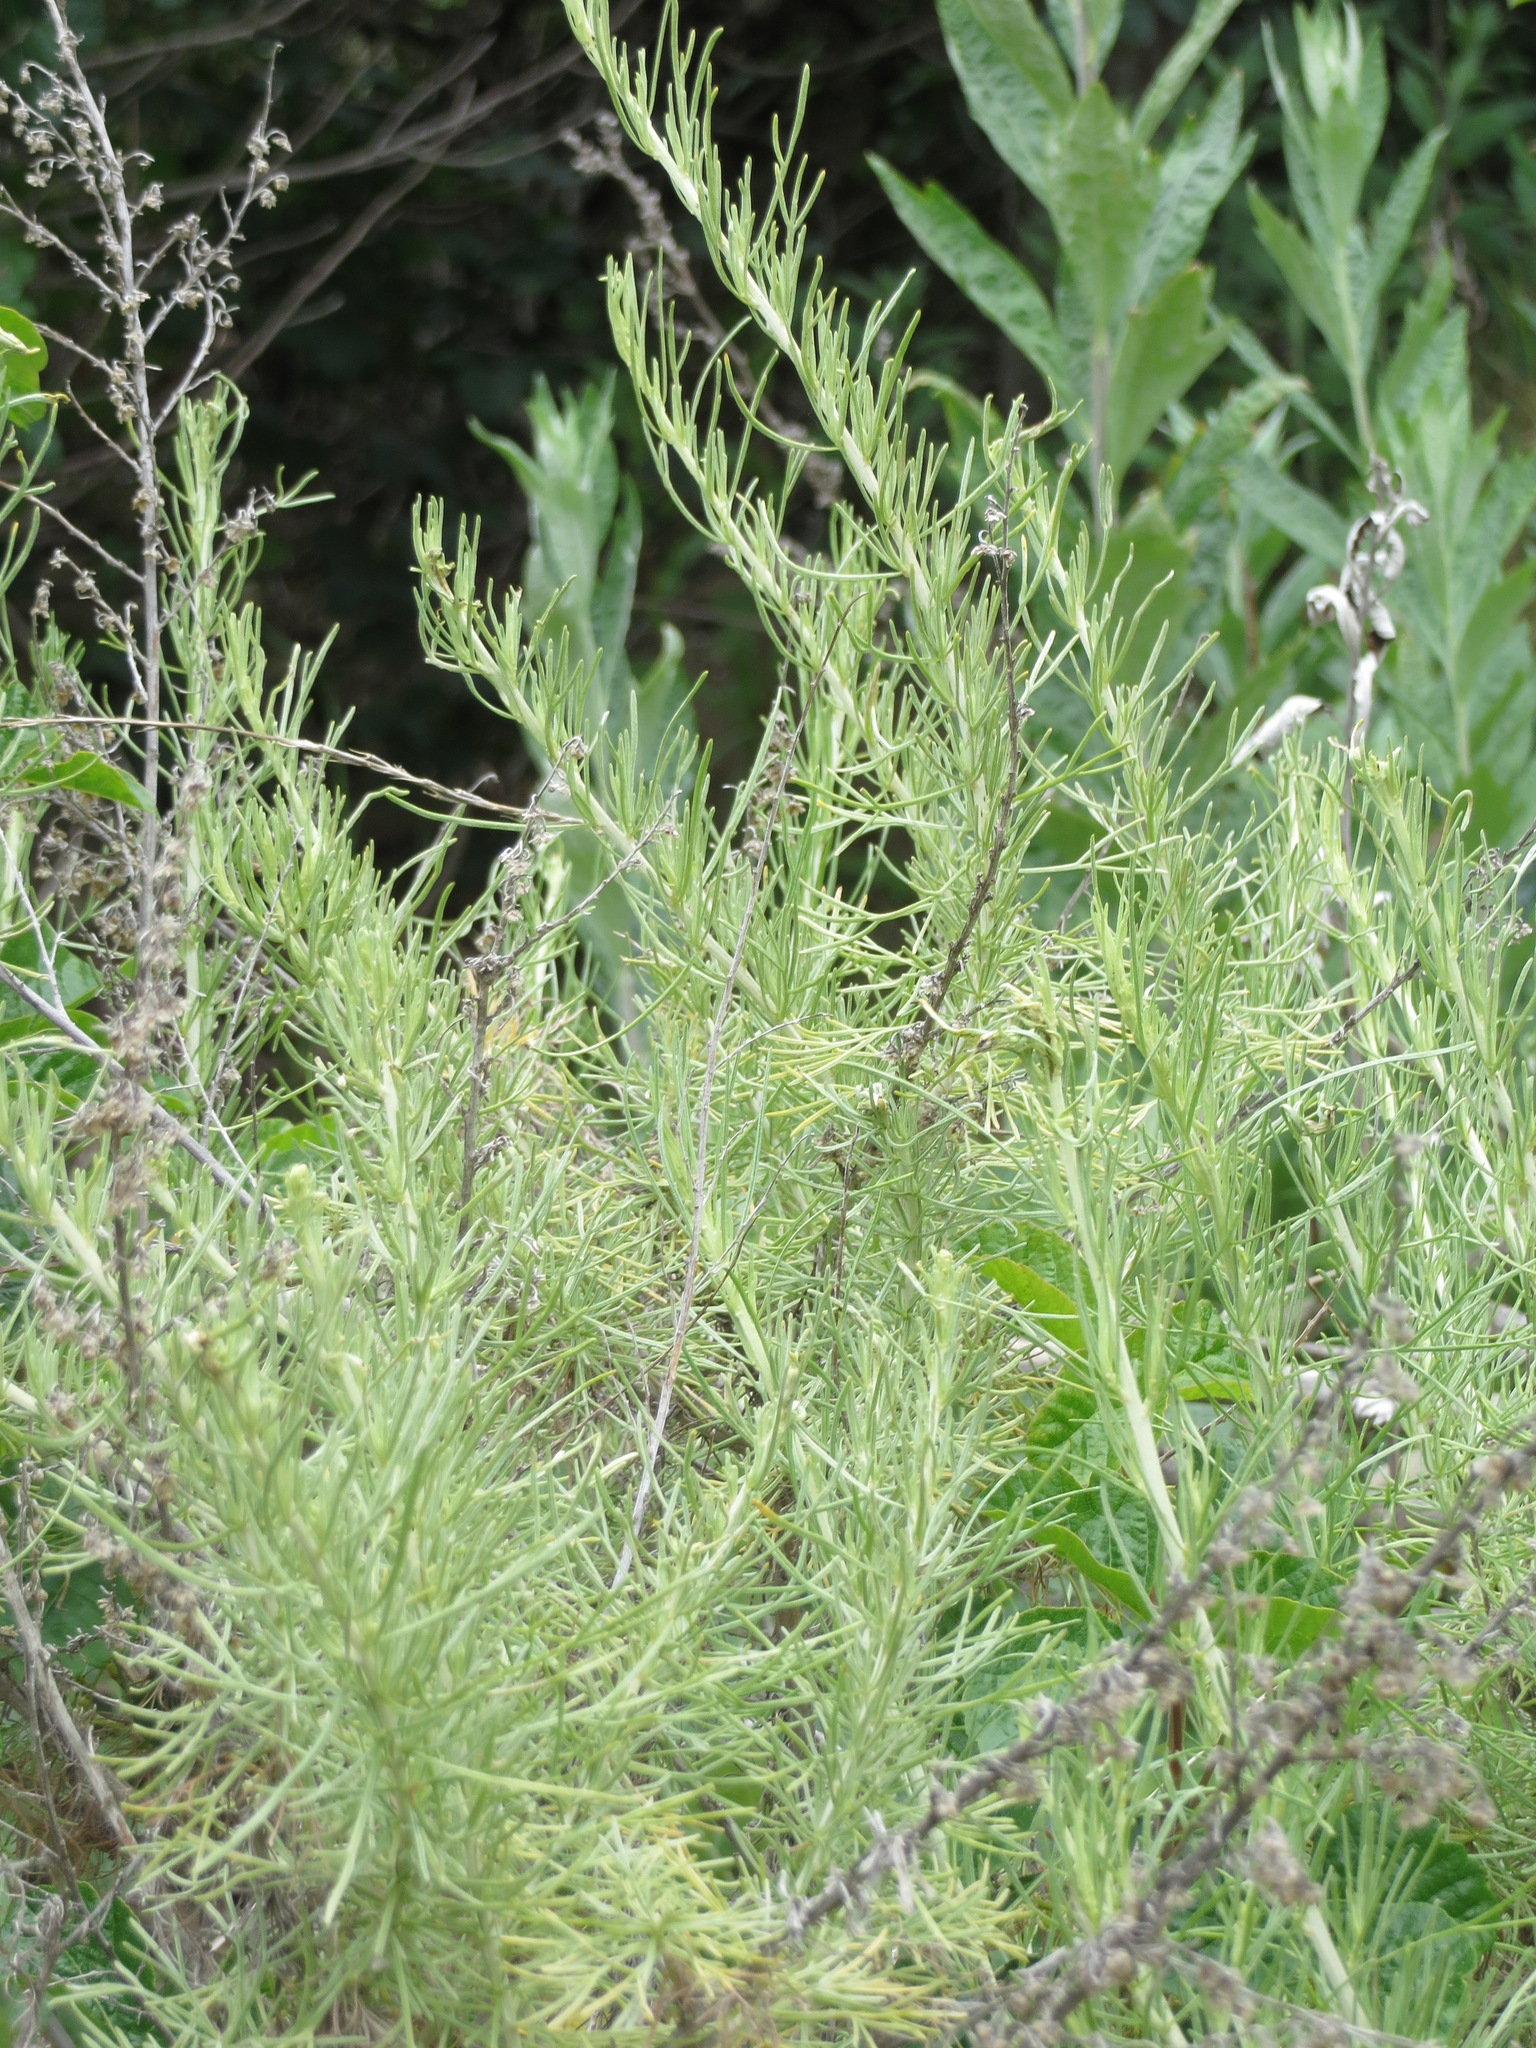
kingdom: Plantae
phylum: Tracheophyta
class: Magnoliopsida
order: Asterales
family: Asteraceae
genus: Artemisia
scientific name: Artemisia californica
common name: California sagebrush
